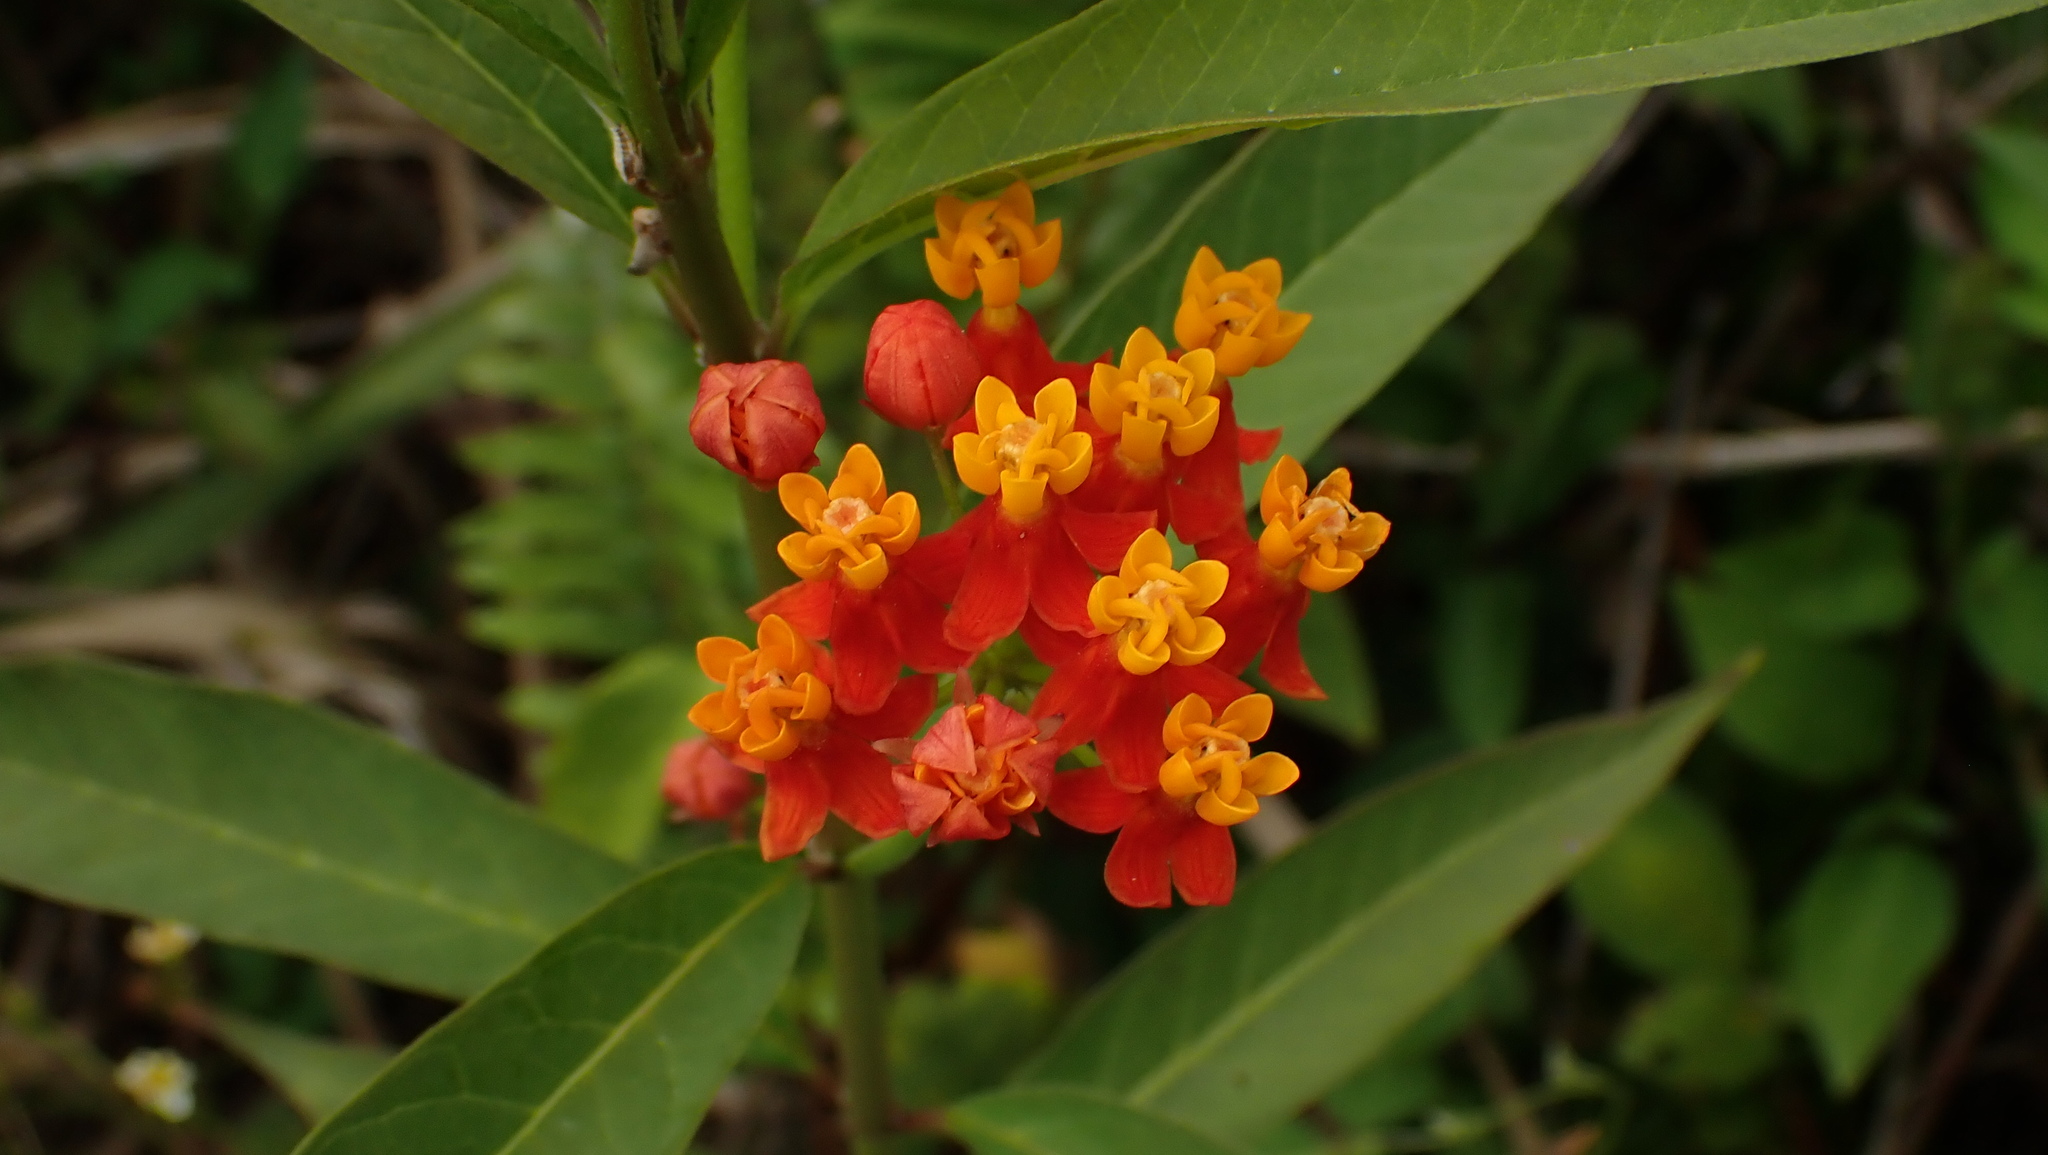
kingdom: Plantae
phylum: Tracheophyta
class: Magnoliopsida
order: Gentianales
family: Apocynaceae
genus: Asclepias
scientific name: Asclepias curassavica
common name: Bloodflower
